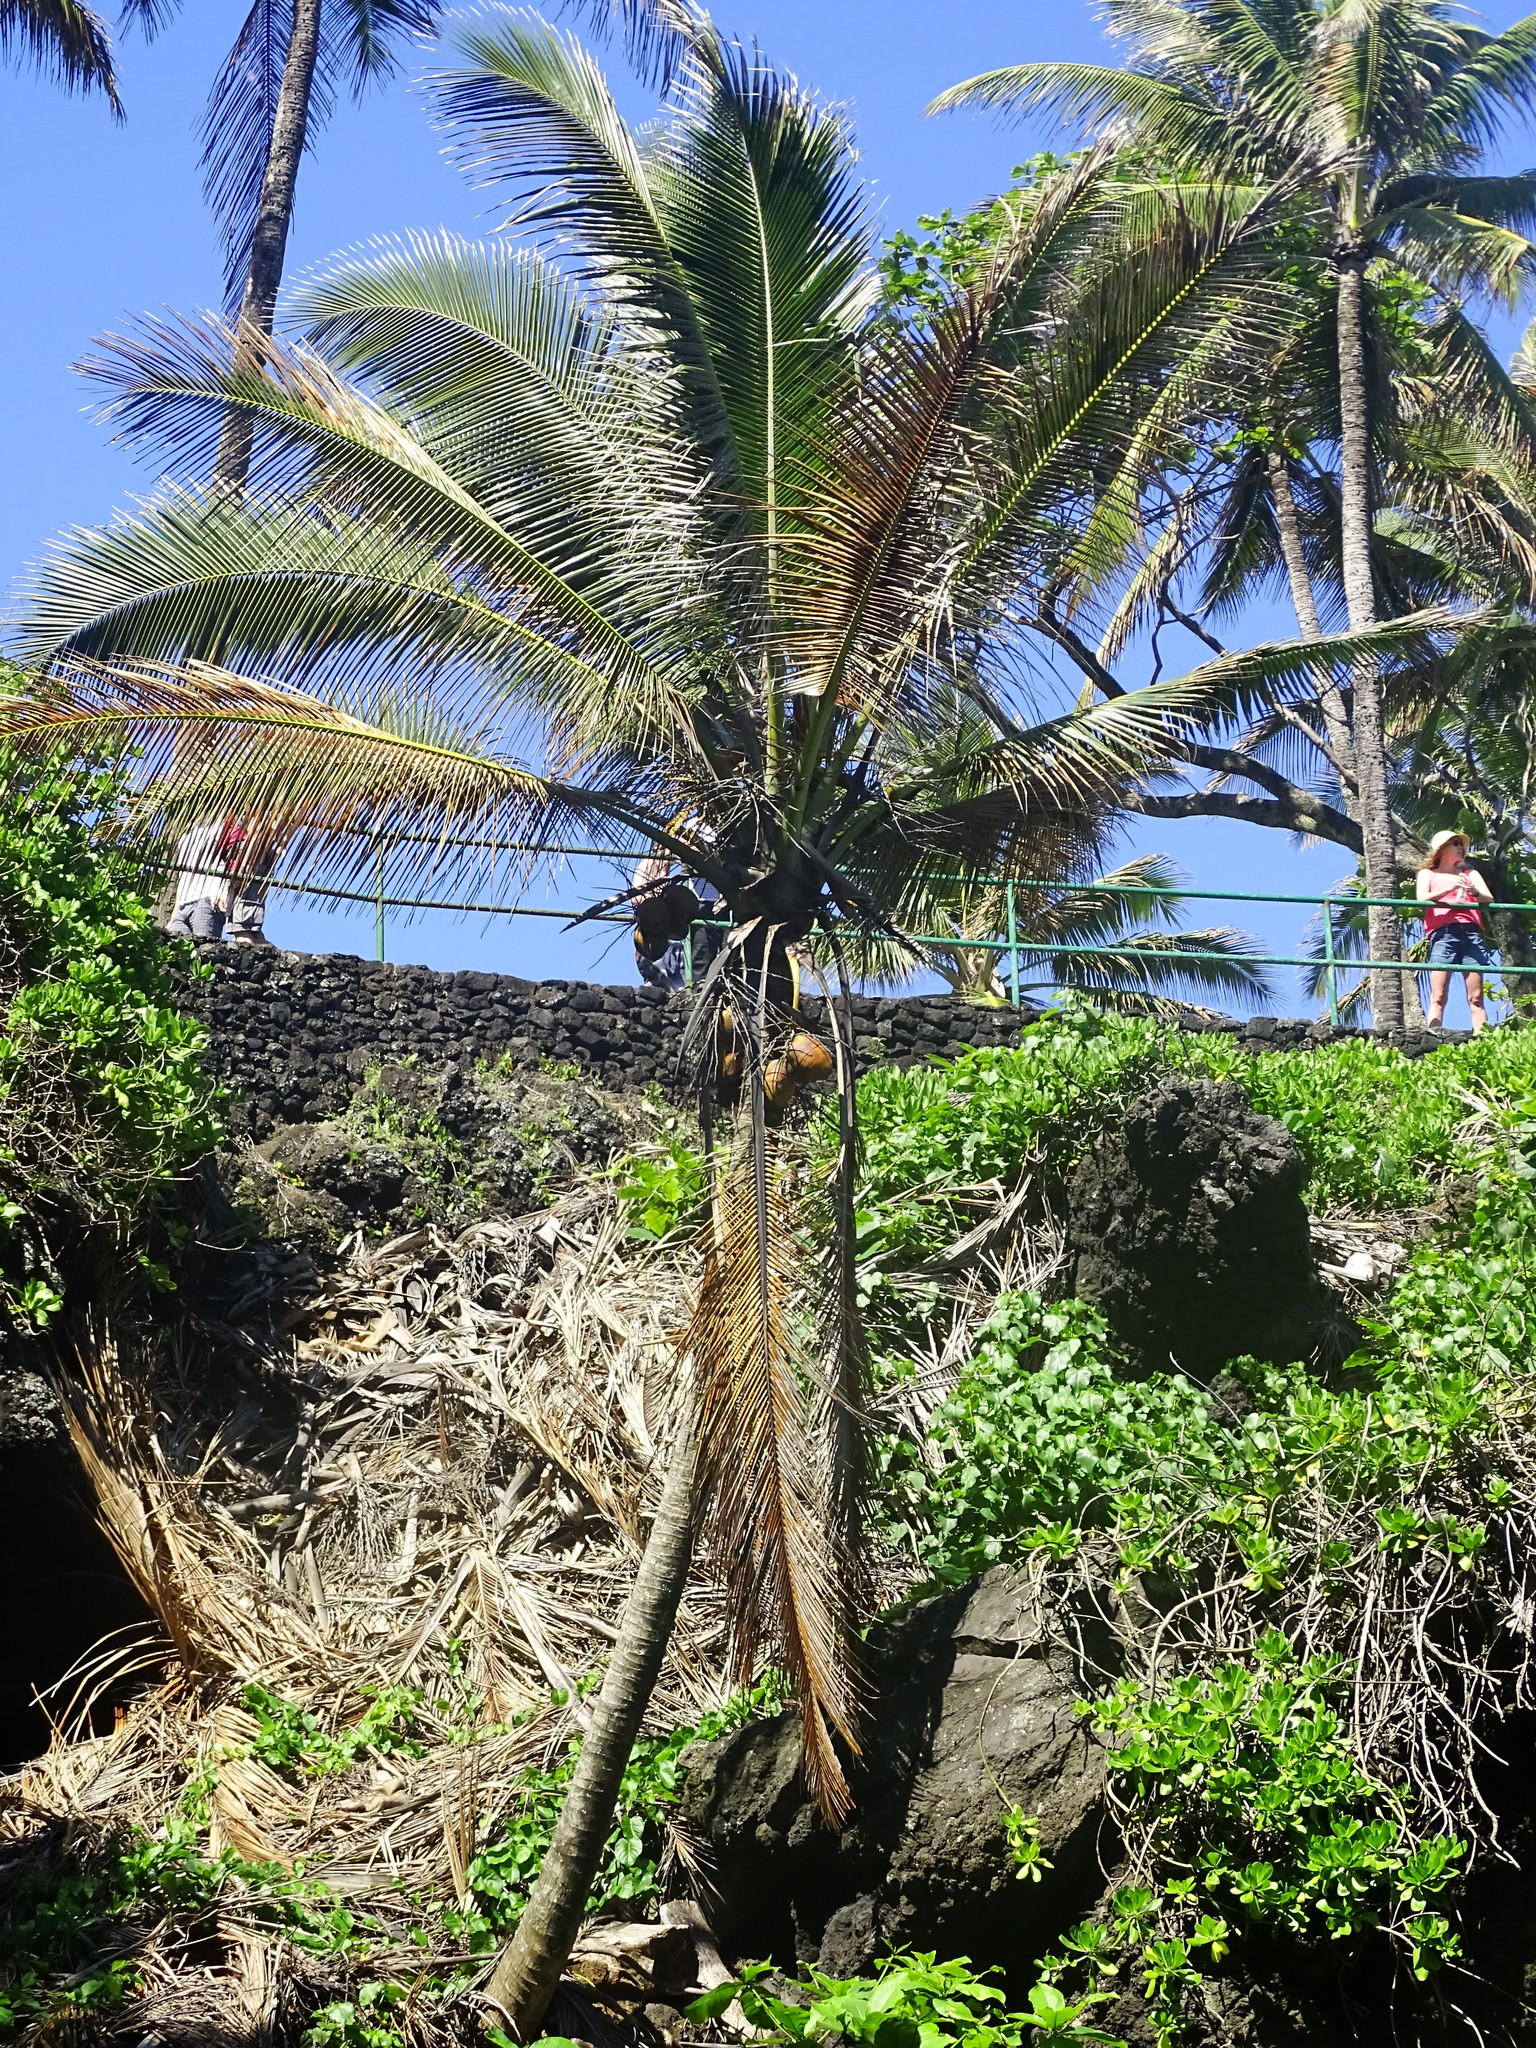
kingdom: Plantae
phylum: Tracheophyta
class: Liliopsida
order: Arecales
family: Arecaceae
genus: Cocos
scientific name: Cocos nucifera
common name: Coconut palm
